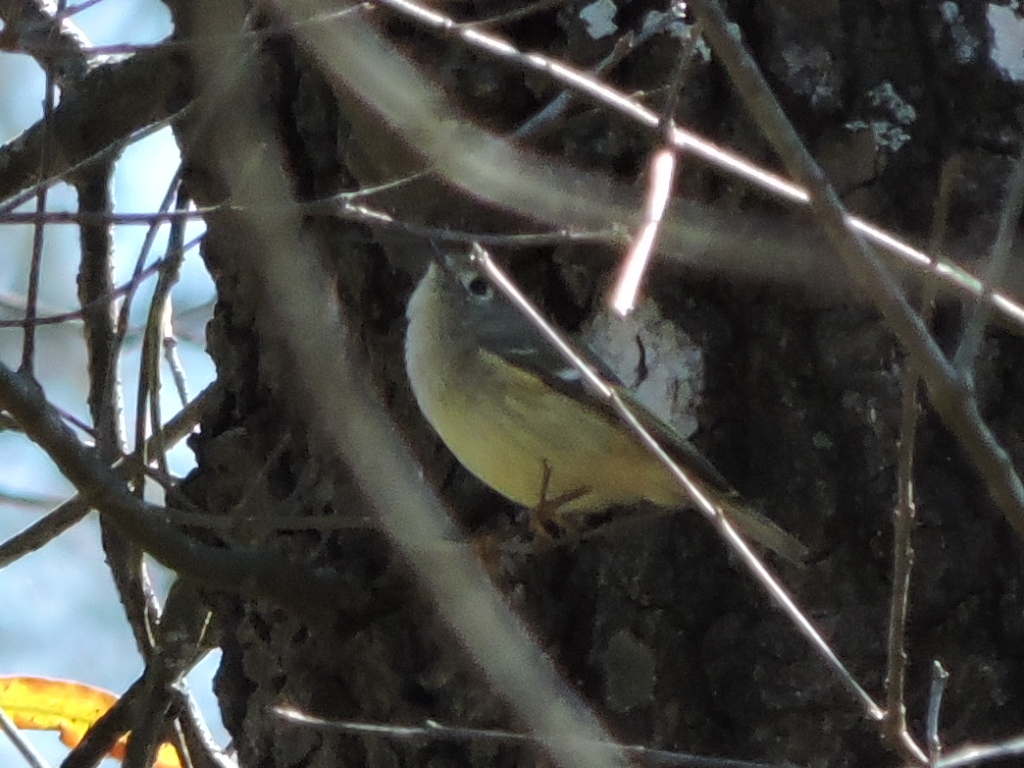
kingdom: Animalia
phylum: Chordata
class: Aves
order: Passeriformes
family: Regulidae
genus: Regulus
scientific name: Regulus calendula
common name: Ruby-crowned kinglet
